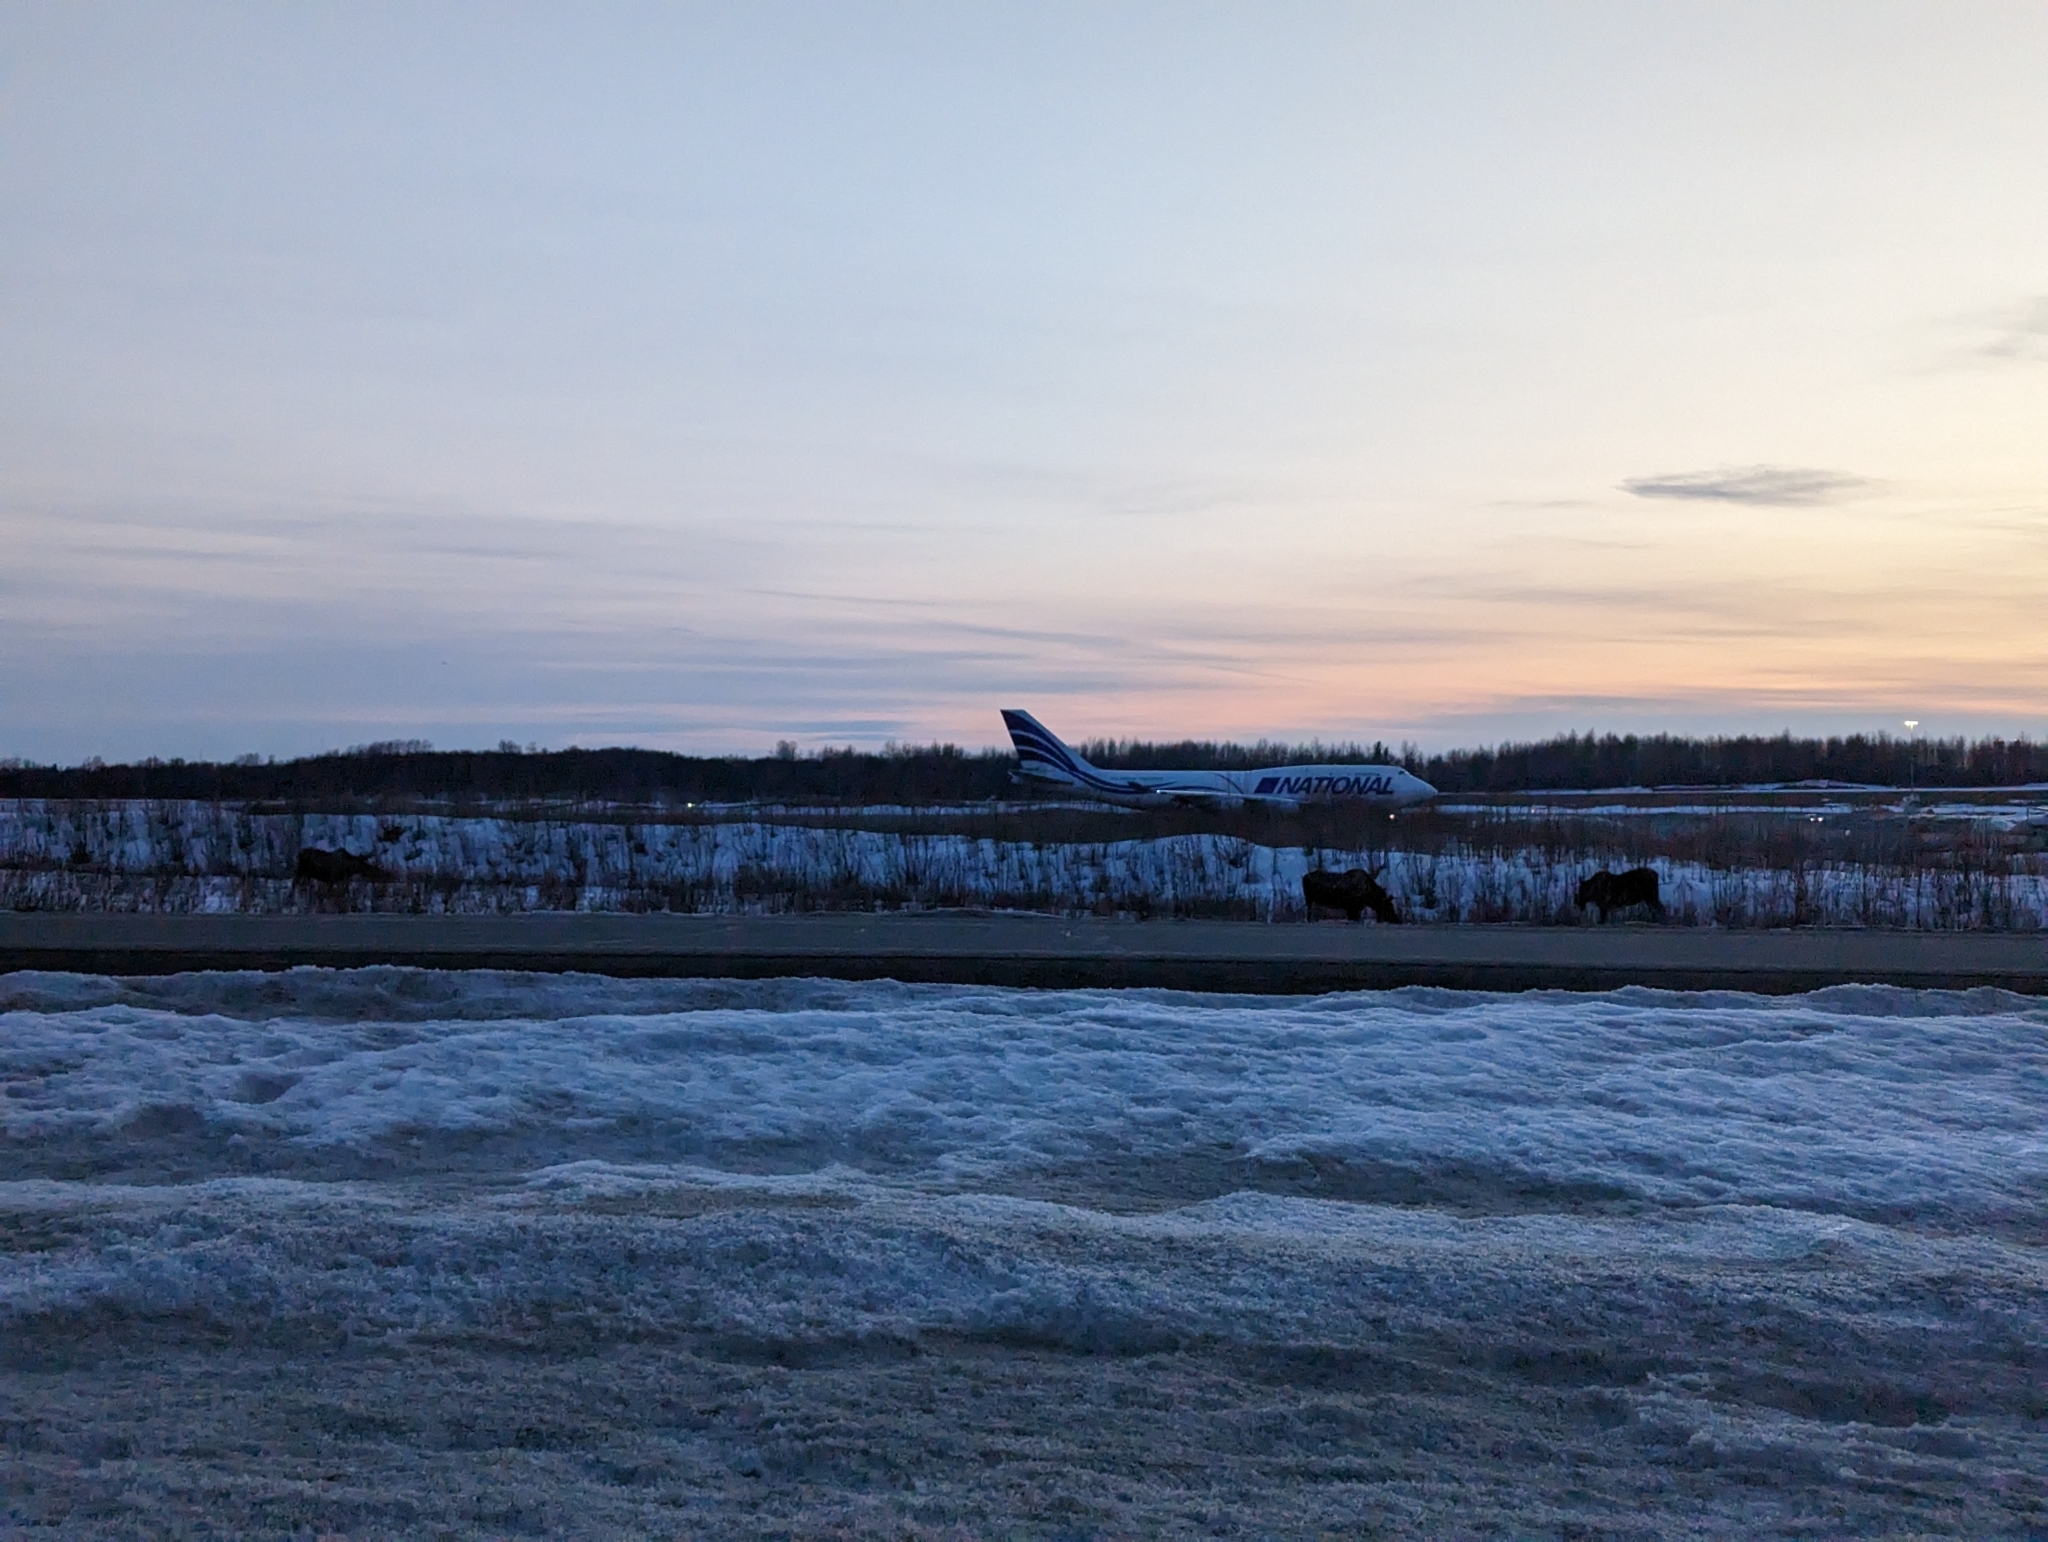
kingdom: Animalia
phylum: Chordata
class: Mammalia
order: Artiodactyla
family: Cervidae
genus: Alces
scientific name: Alces alces
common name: Moose
